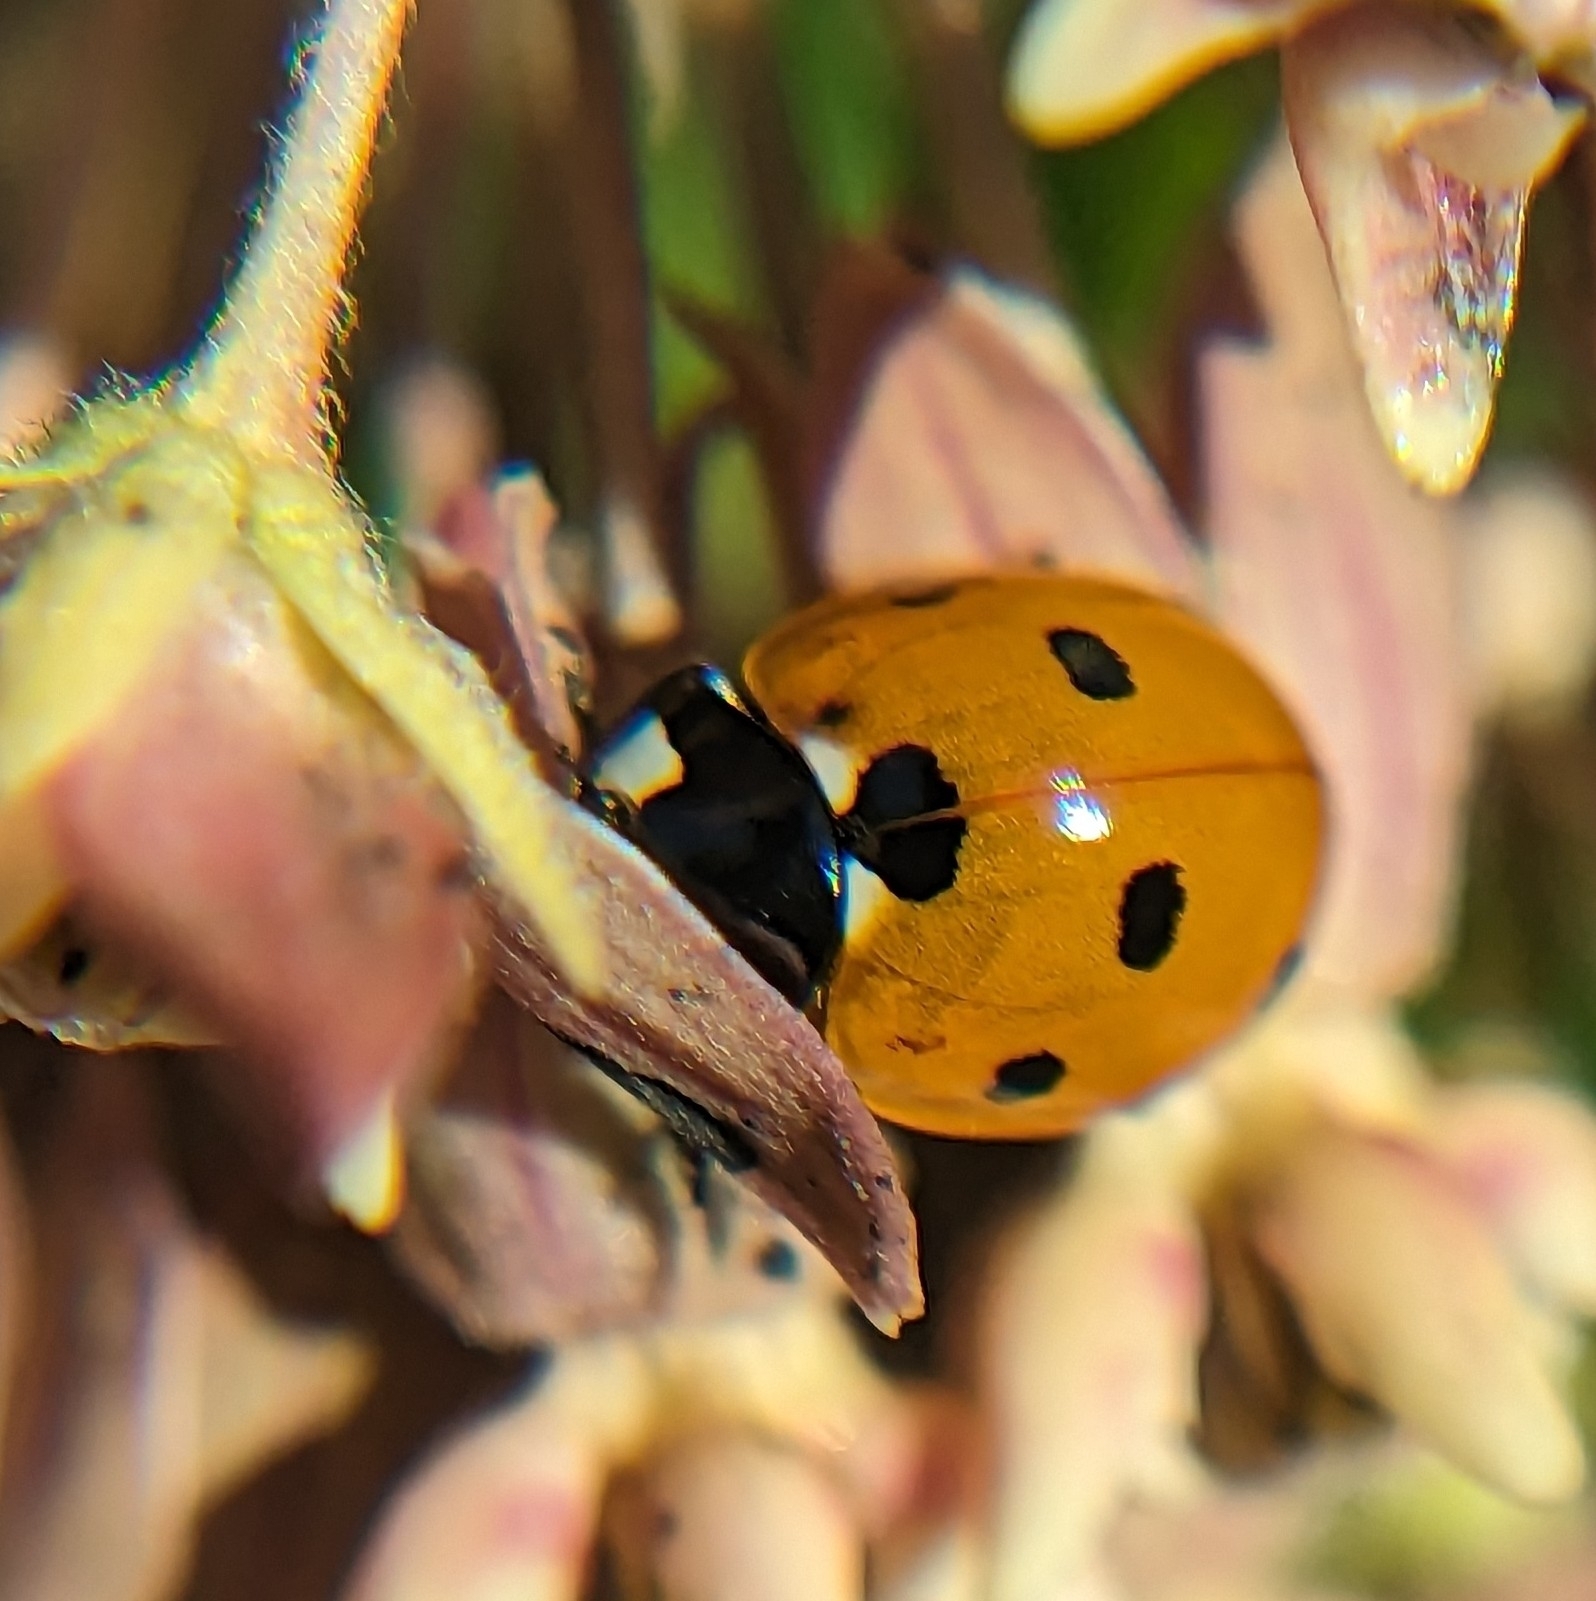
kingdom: Animalia
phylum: Arthropoda
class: Insecta
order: Coleoptera
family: Coccinellidae
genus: Coccinella
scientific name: Coccinella septempunctata
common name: Sevenspotted lady beetle
